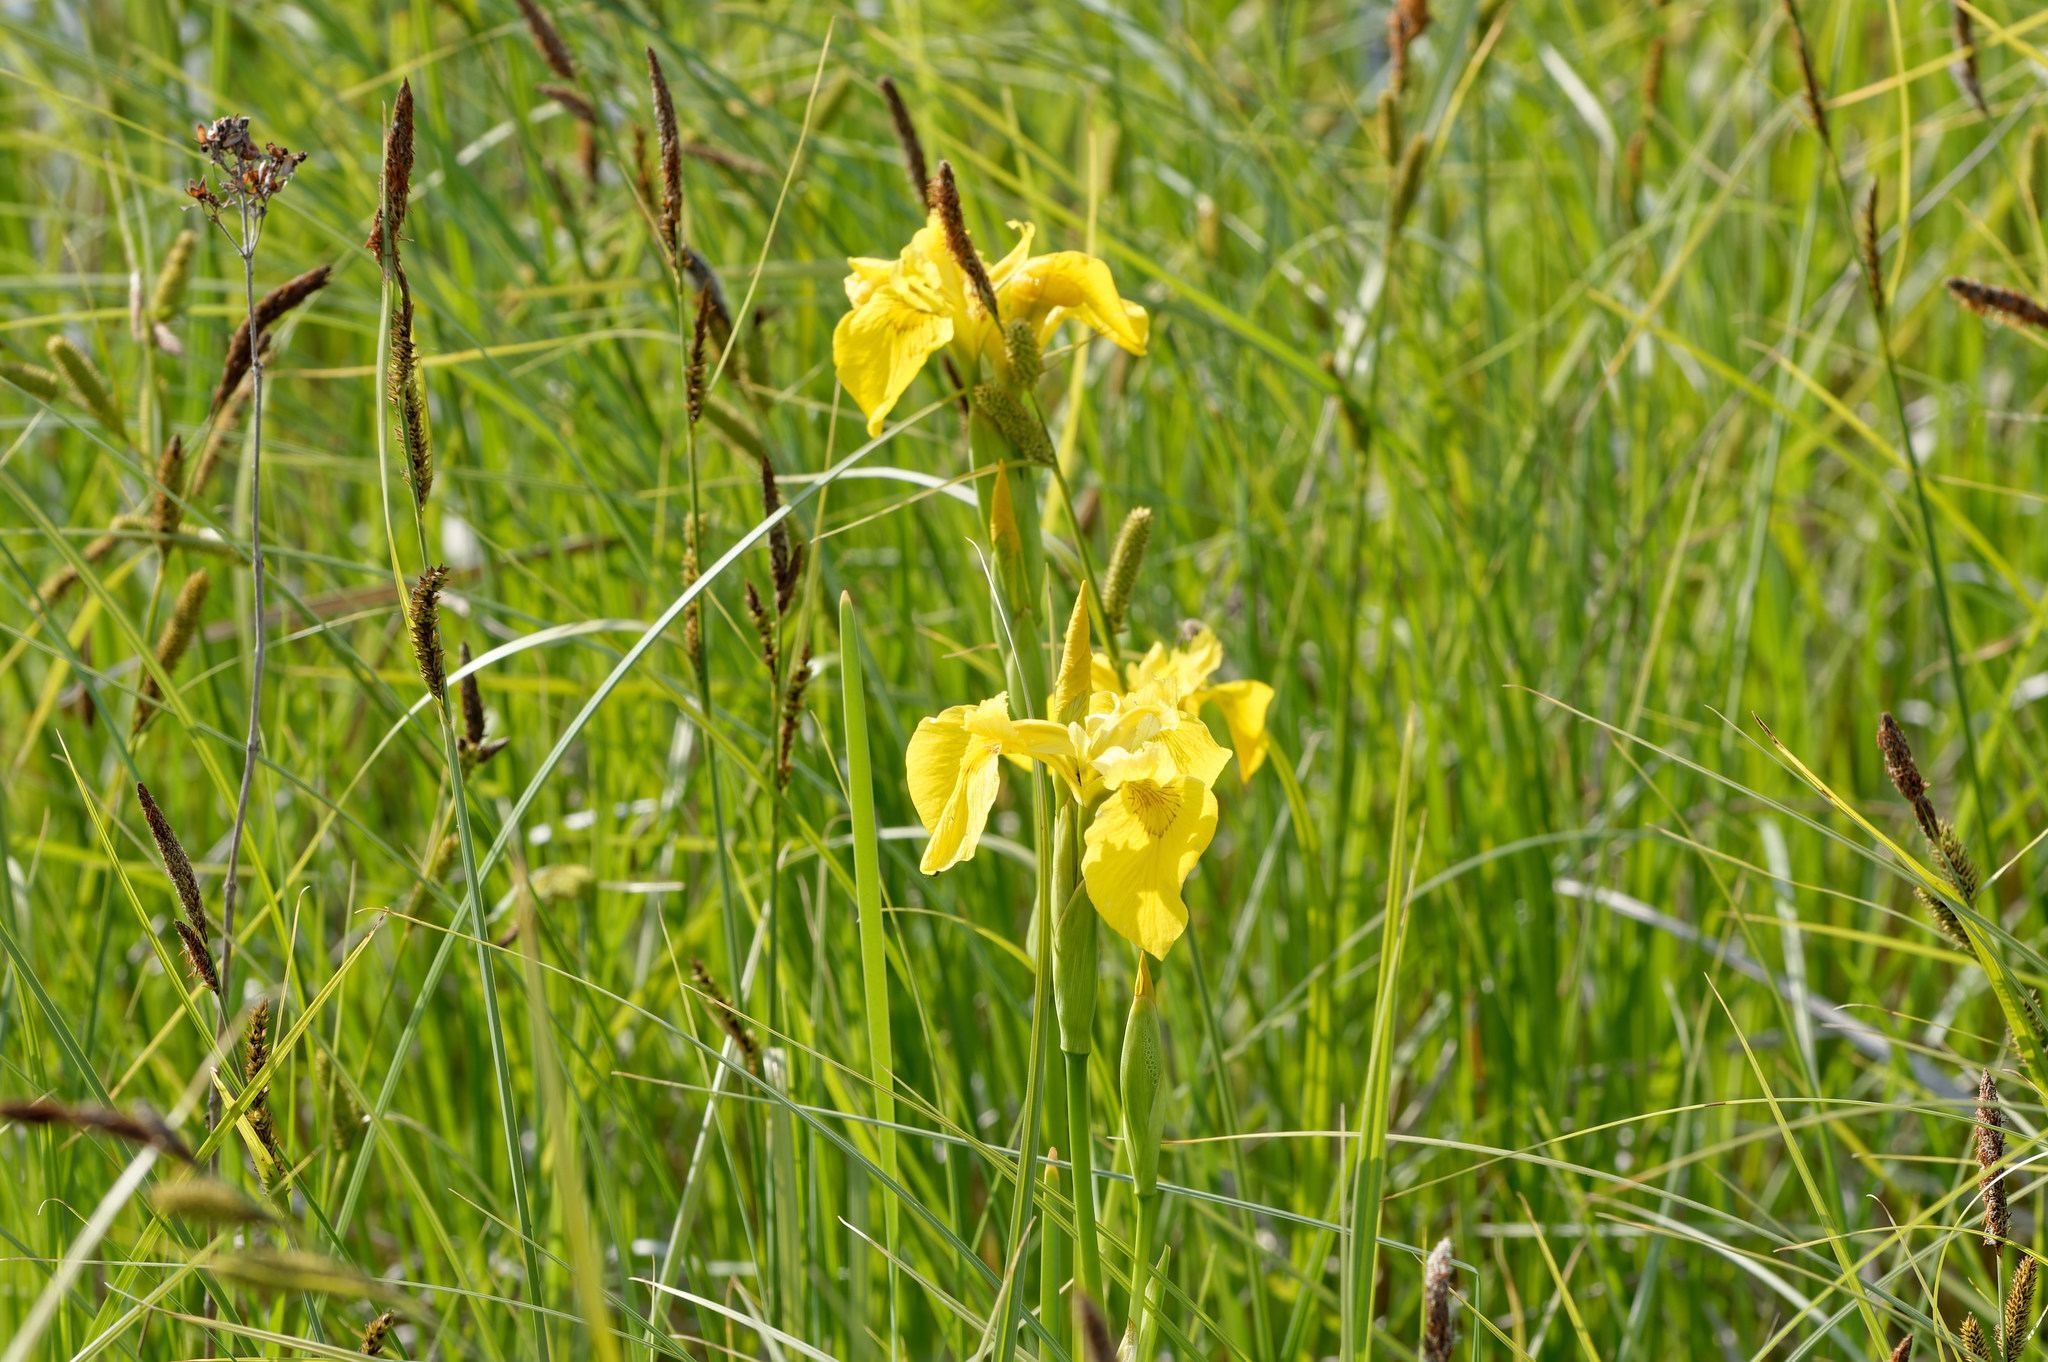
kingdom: Plantae
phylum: Tracheophyta
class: Liliopsida
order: Asparagales
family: Iridaceae
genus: Iris
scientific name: Iris pseudacorus
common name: Yellow flag
